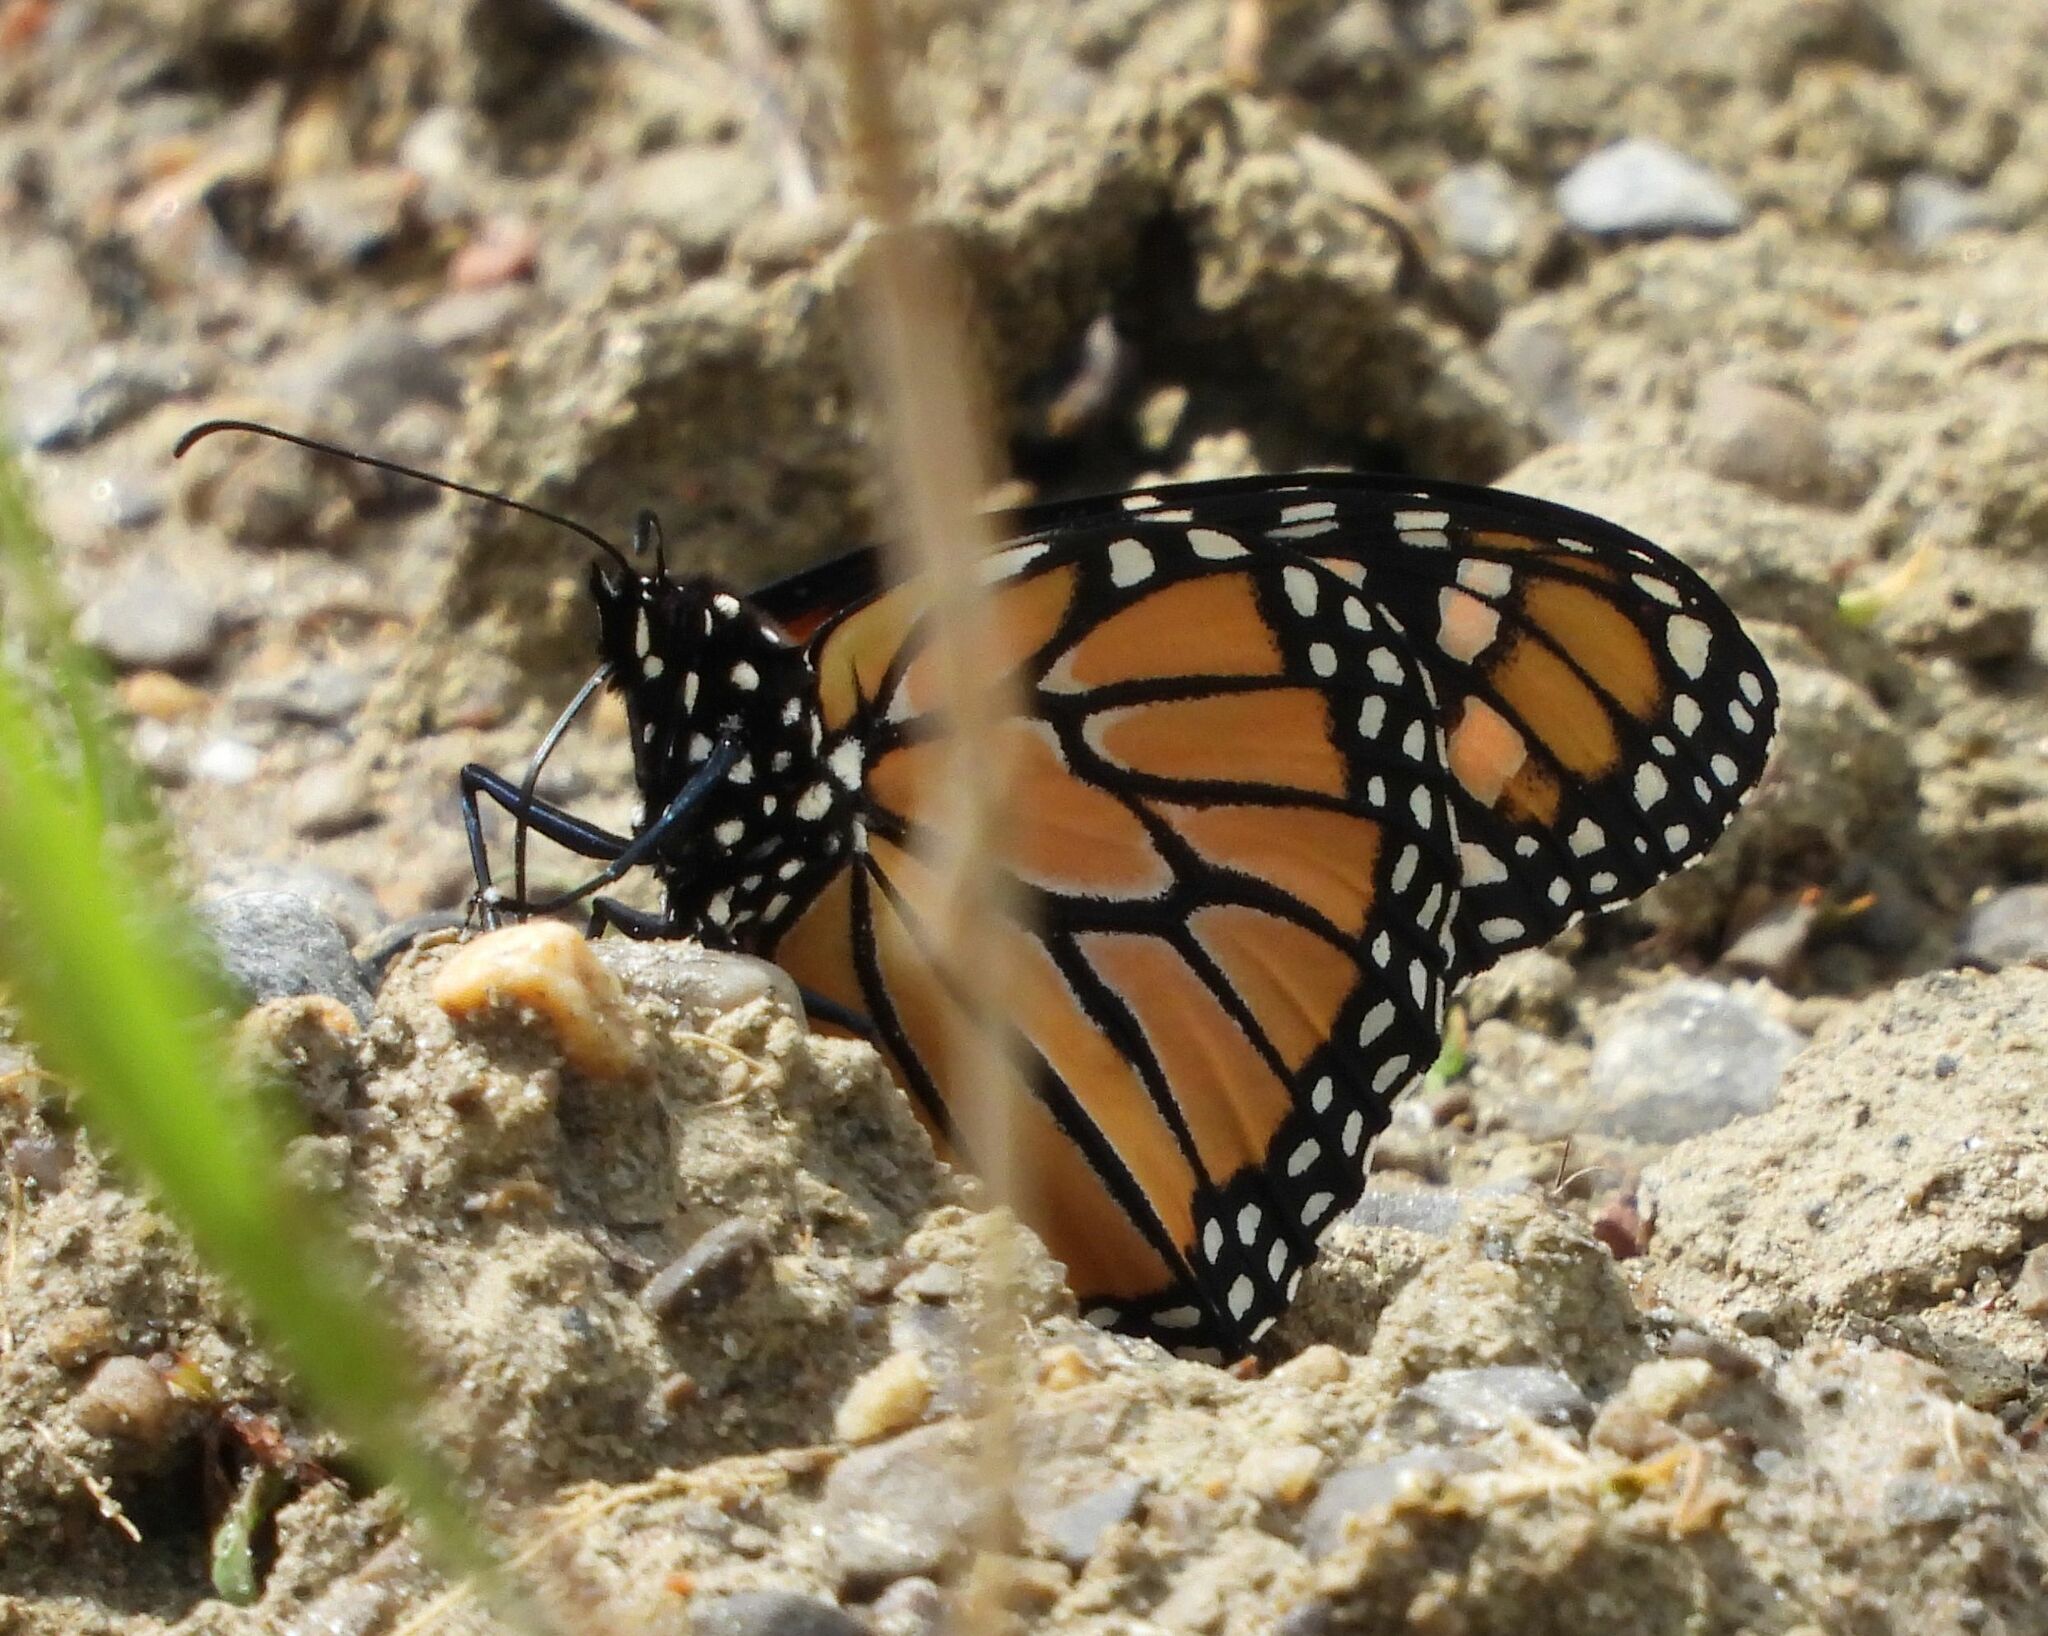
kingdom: Animalia
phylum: Arthropoda
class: Insecta
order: Lepidoptera
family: Nymphalidae
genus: Danaus
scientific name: Danaus plexippus
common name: Monarch
